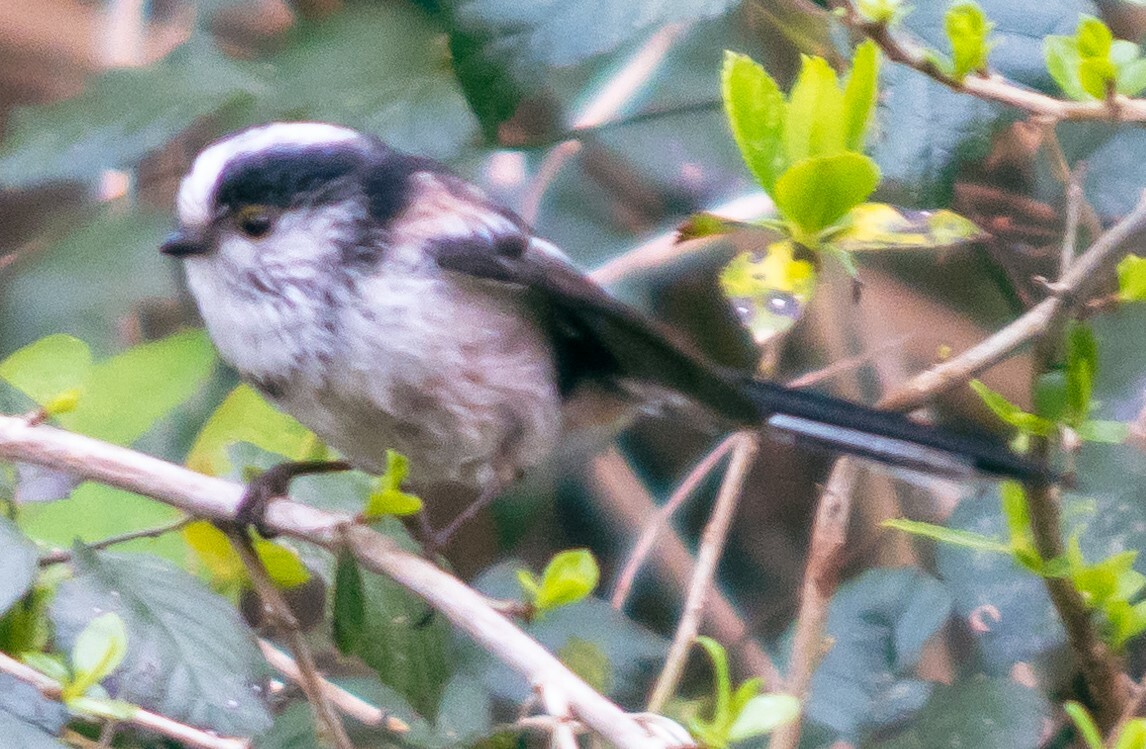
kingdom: Animalia
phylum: Chordata
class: Aves
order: Passeriformes
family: Aegithalidae
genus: Aegithalos
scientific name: Aegithalos caudatus
